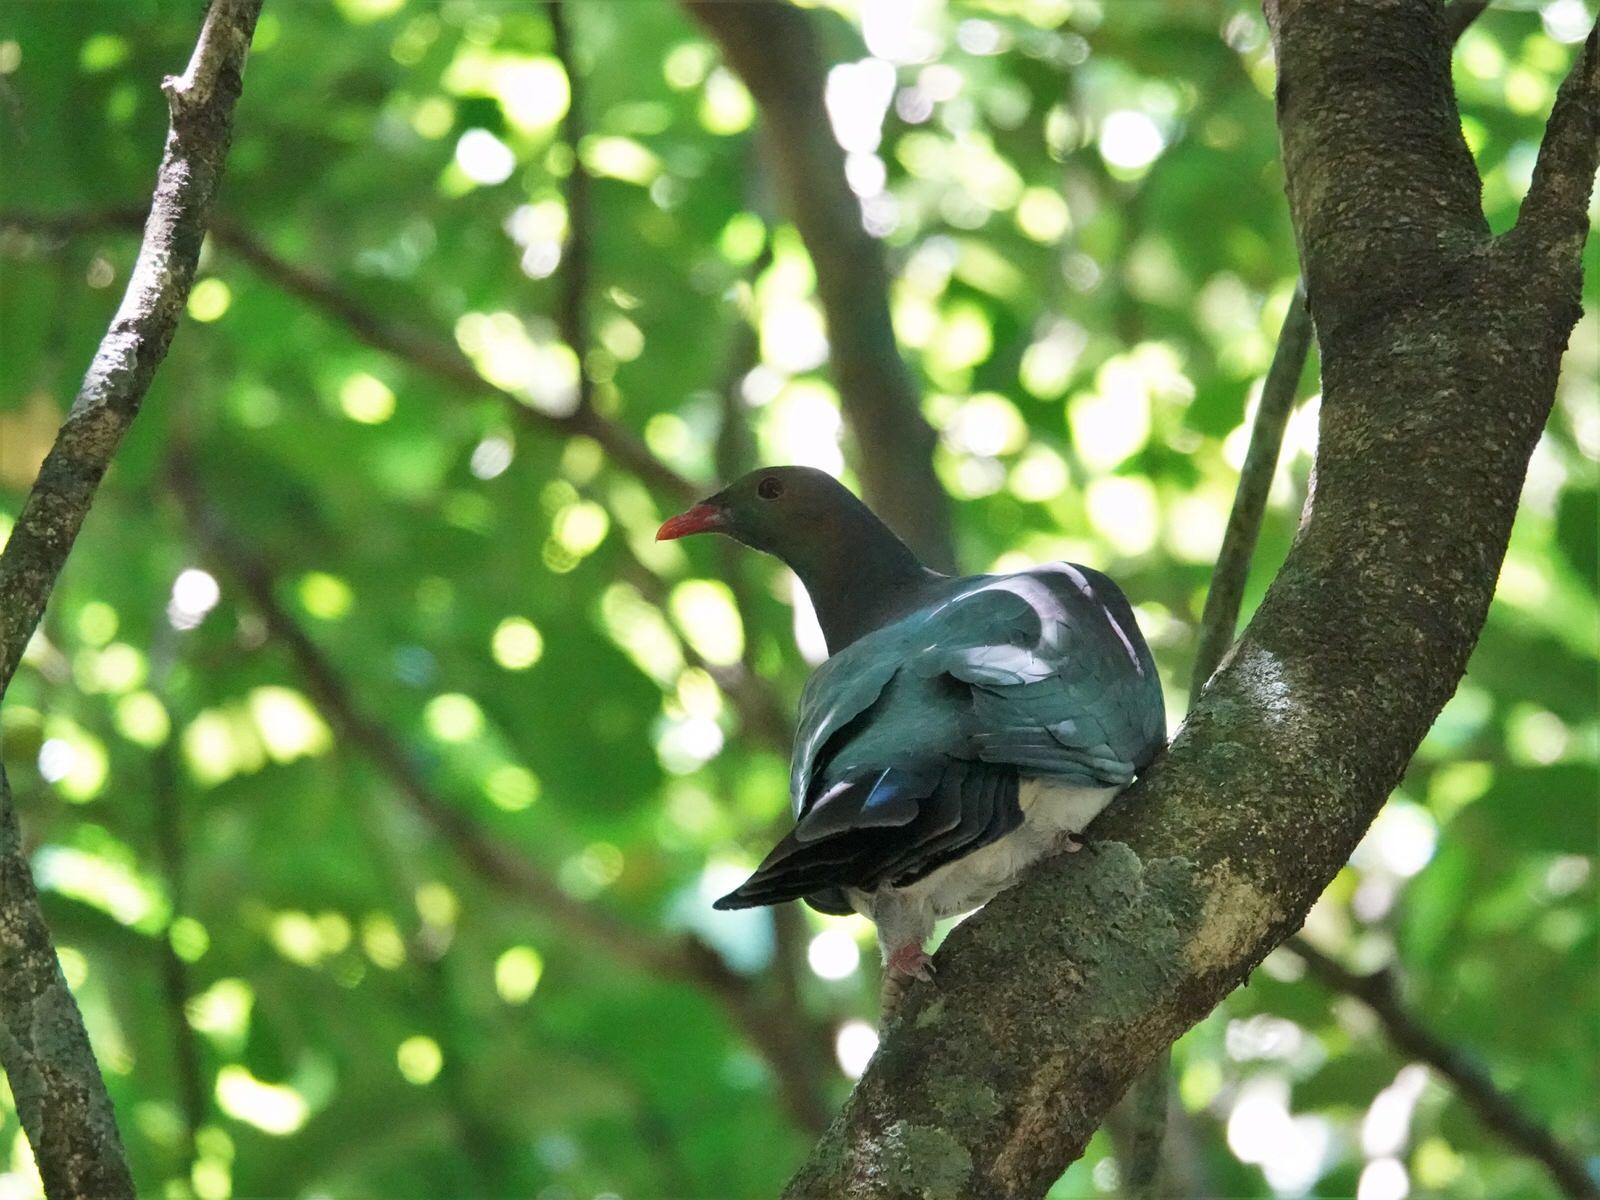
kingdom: Animalia
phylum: Chordata
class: Aves
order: Columbiformes
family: Columbidae
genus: Hemiphaga
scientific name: Hemiphaga novaeseelandiae
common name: New zealand pigeon
